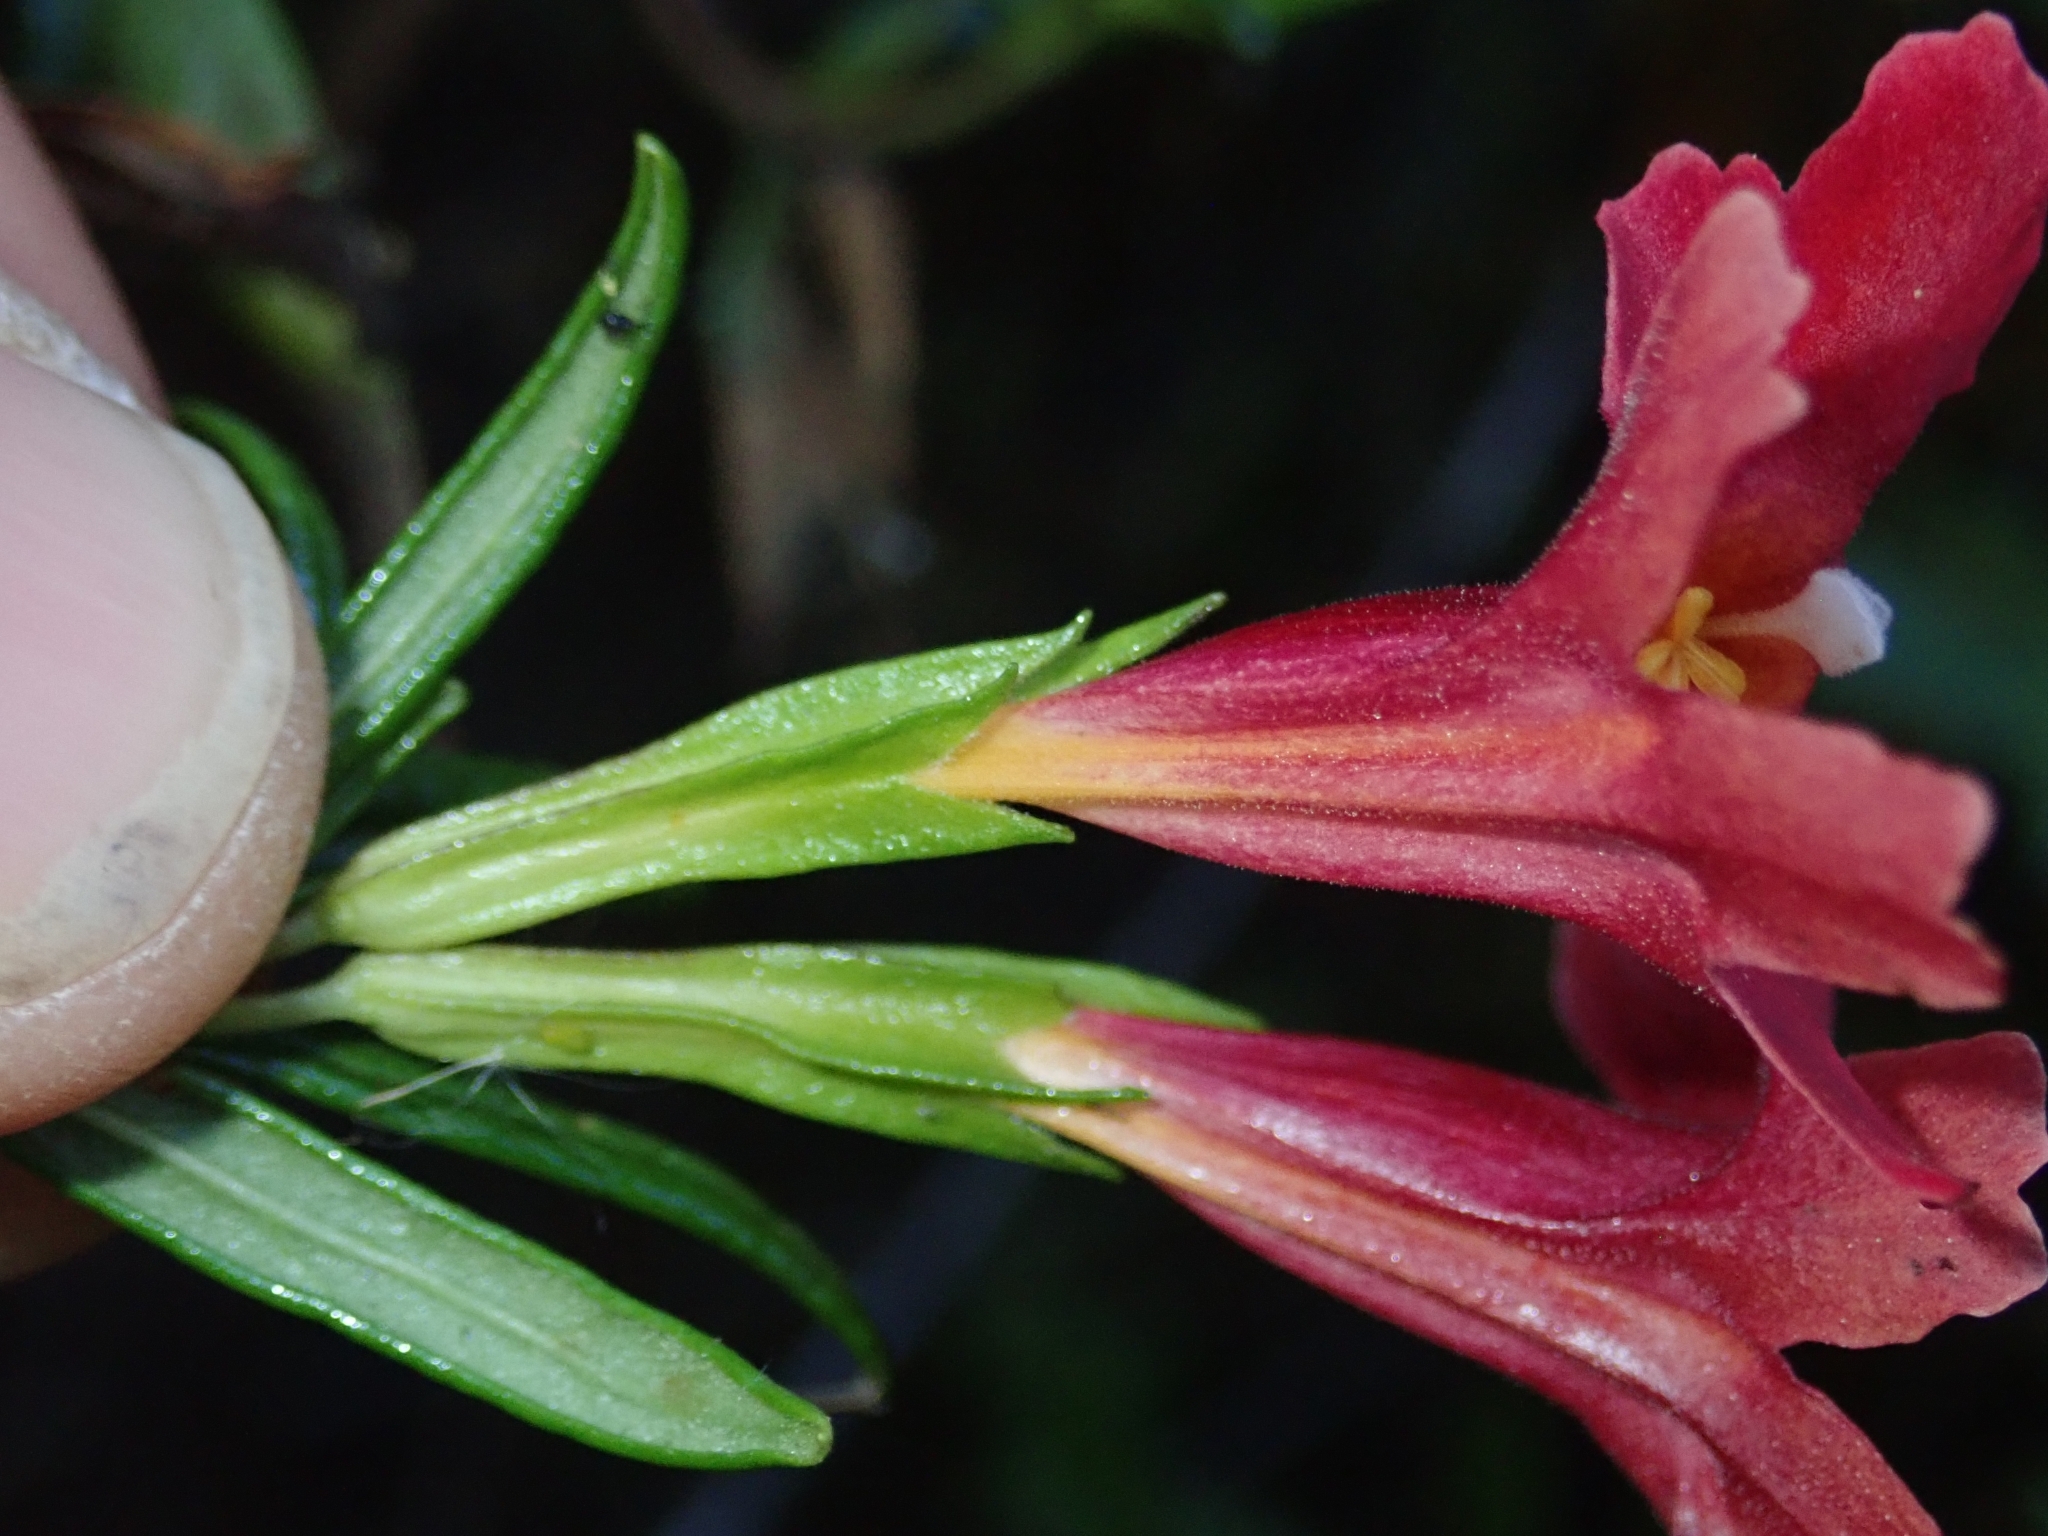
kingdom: Plantae
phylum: Tracheophyta
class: Magnoliopsida
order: Lamiales
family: Phrymaceae
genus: Diplacus
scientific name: Diplacus puniceus
